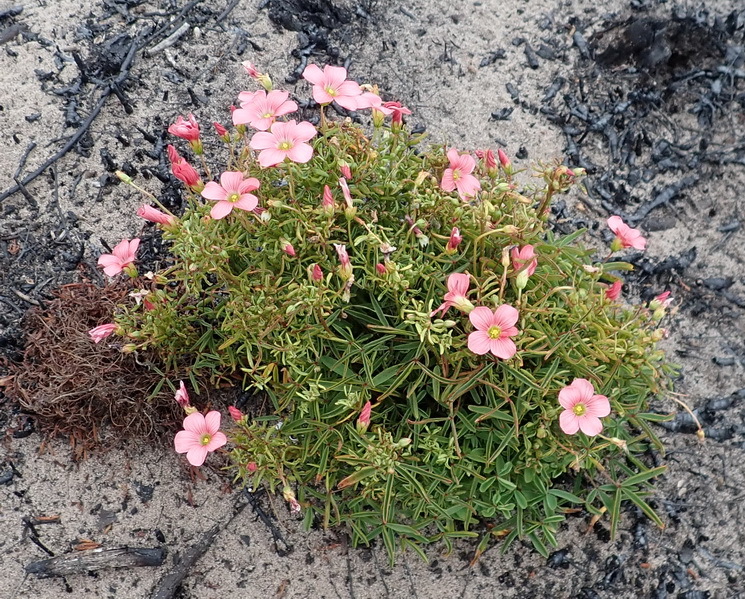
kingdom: Plantae
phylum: Tracheophyta
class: Magnoliopsida
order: Oxalidales
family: Oxalidaceae
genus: Oxalis
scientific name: Oxalis pendulifolia
